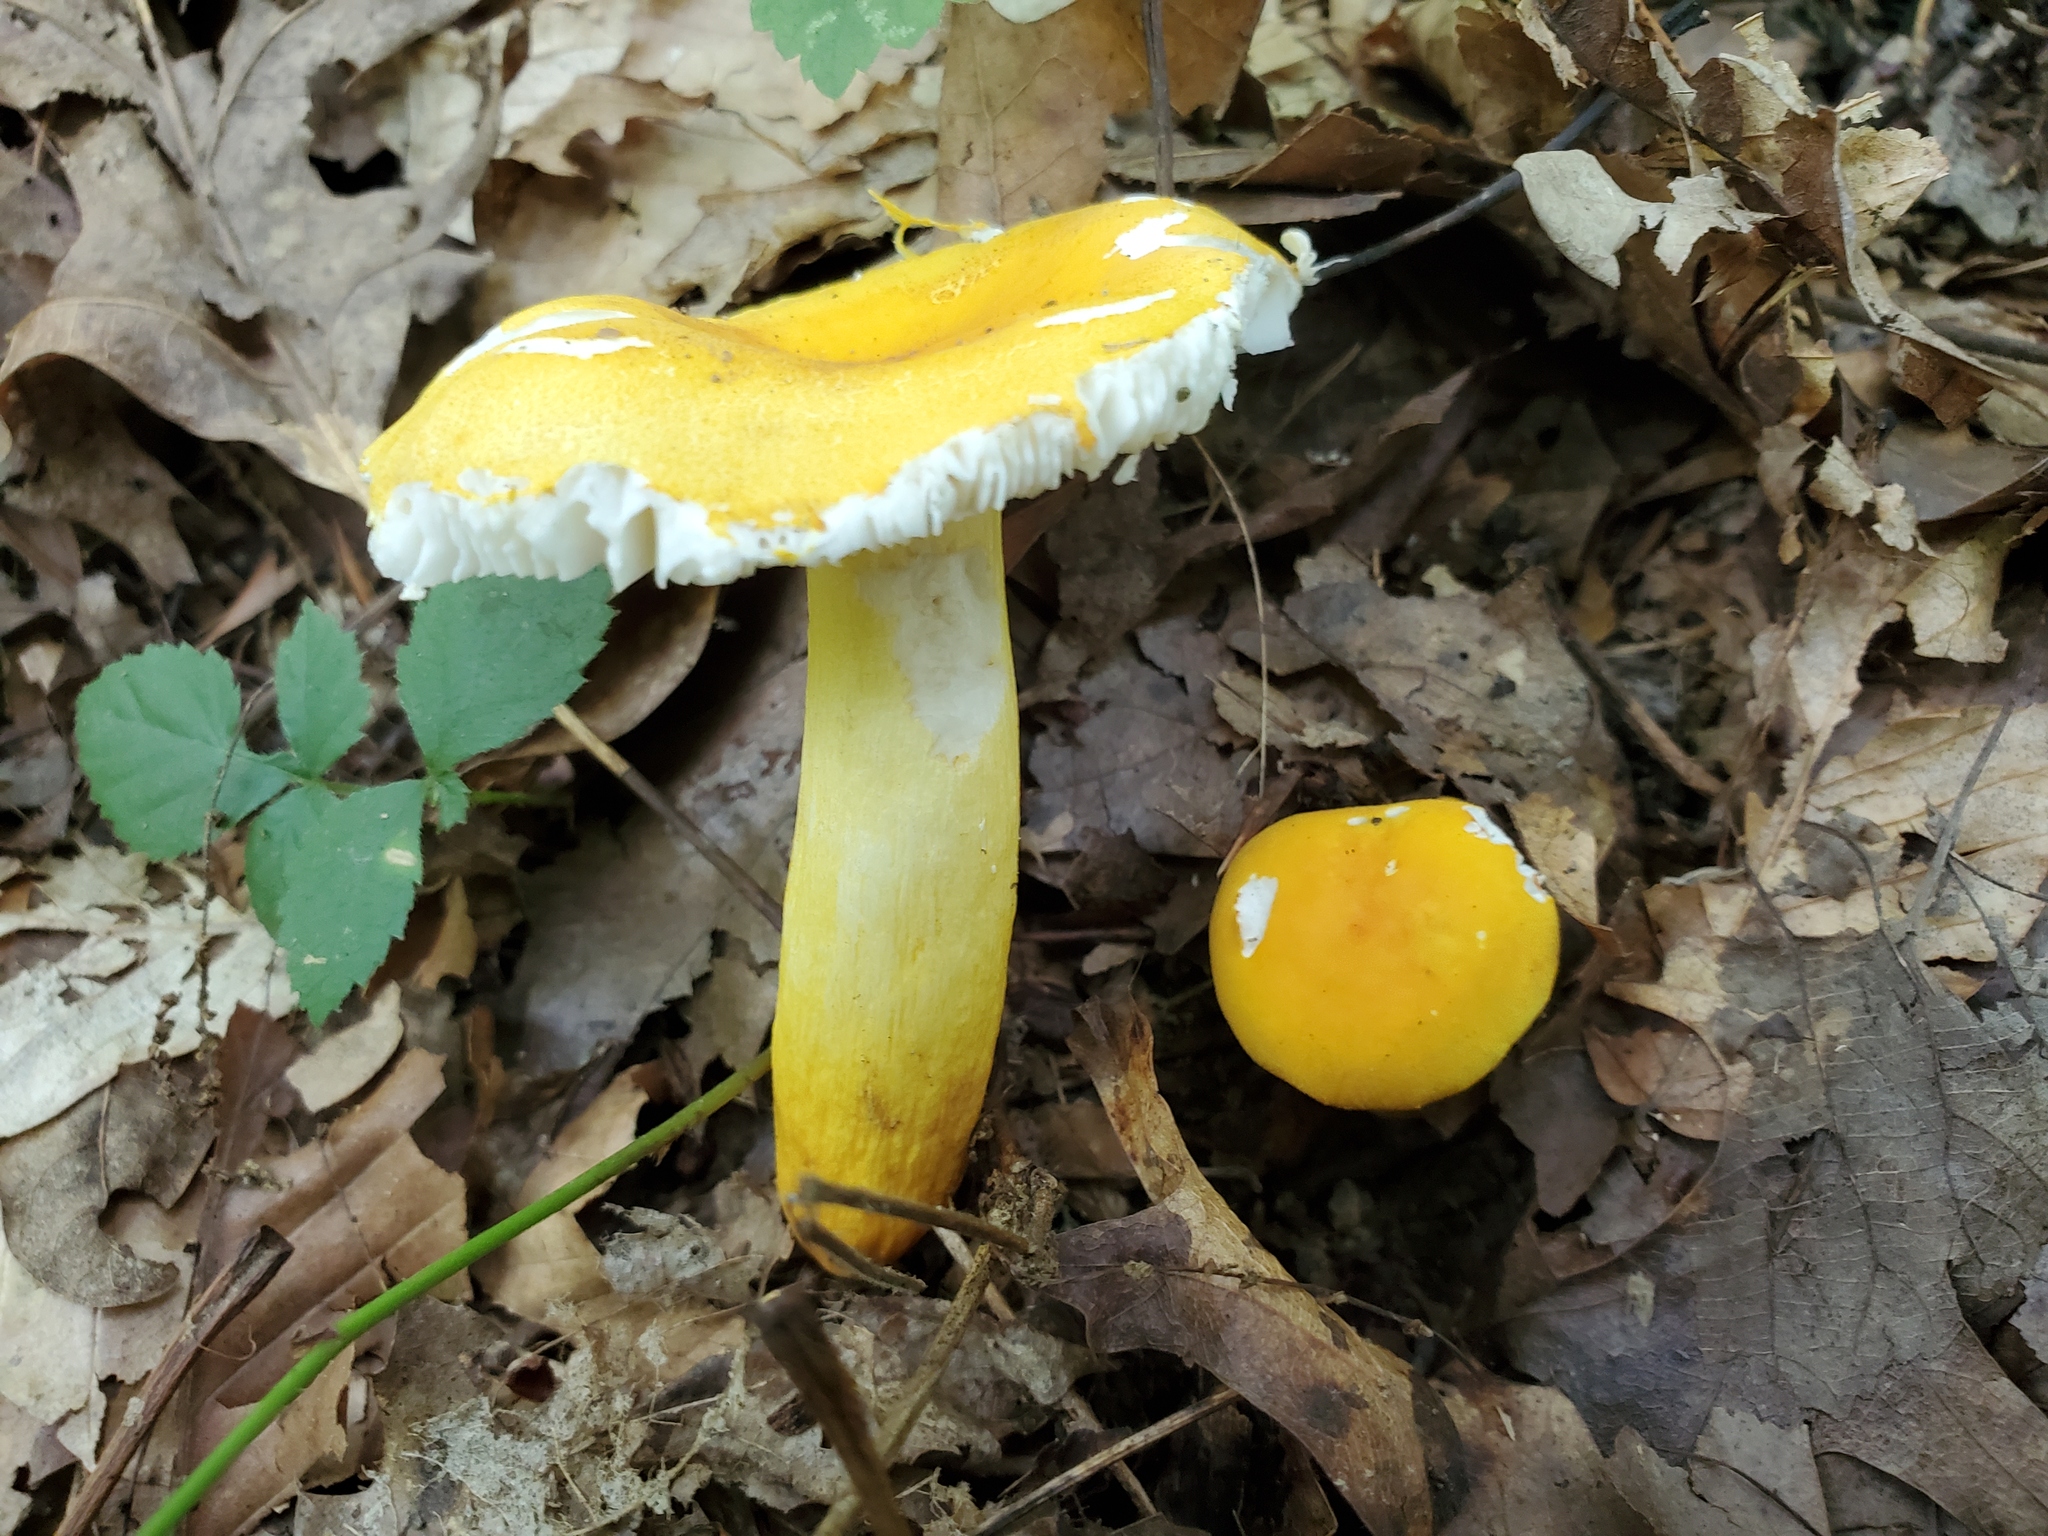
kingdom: Fungi
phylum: Basidiomycota
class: Agaricomycetes
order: Russulales
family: Russulaceae
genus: Russula
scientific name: Russula flavida
